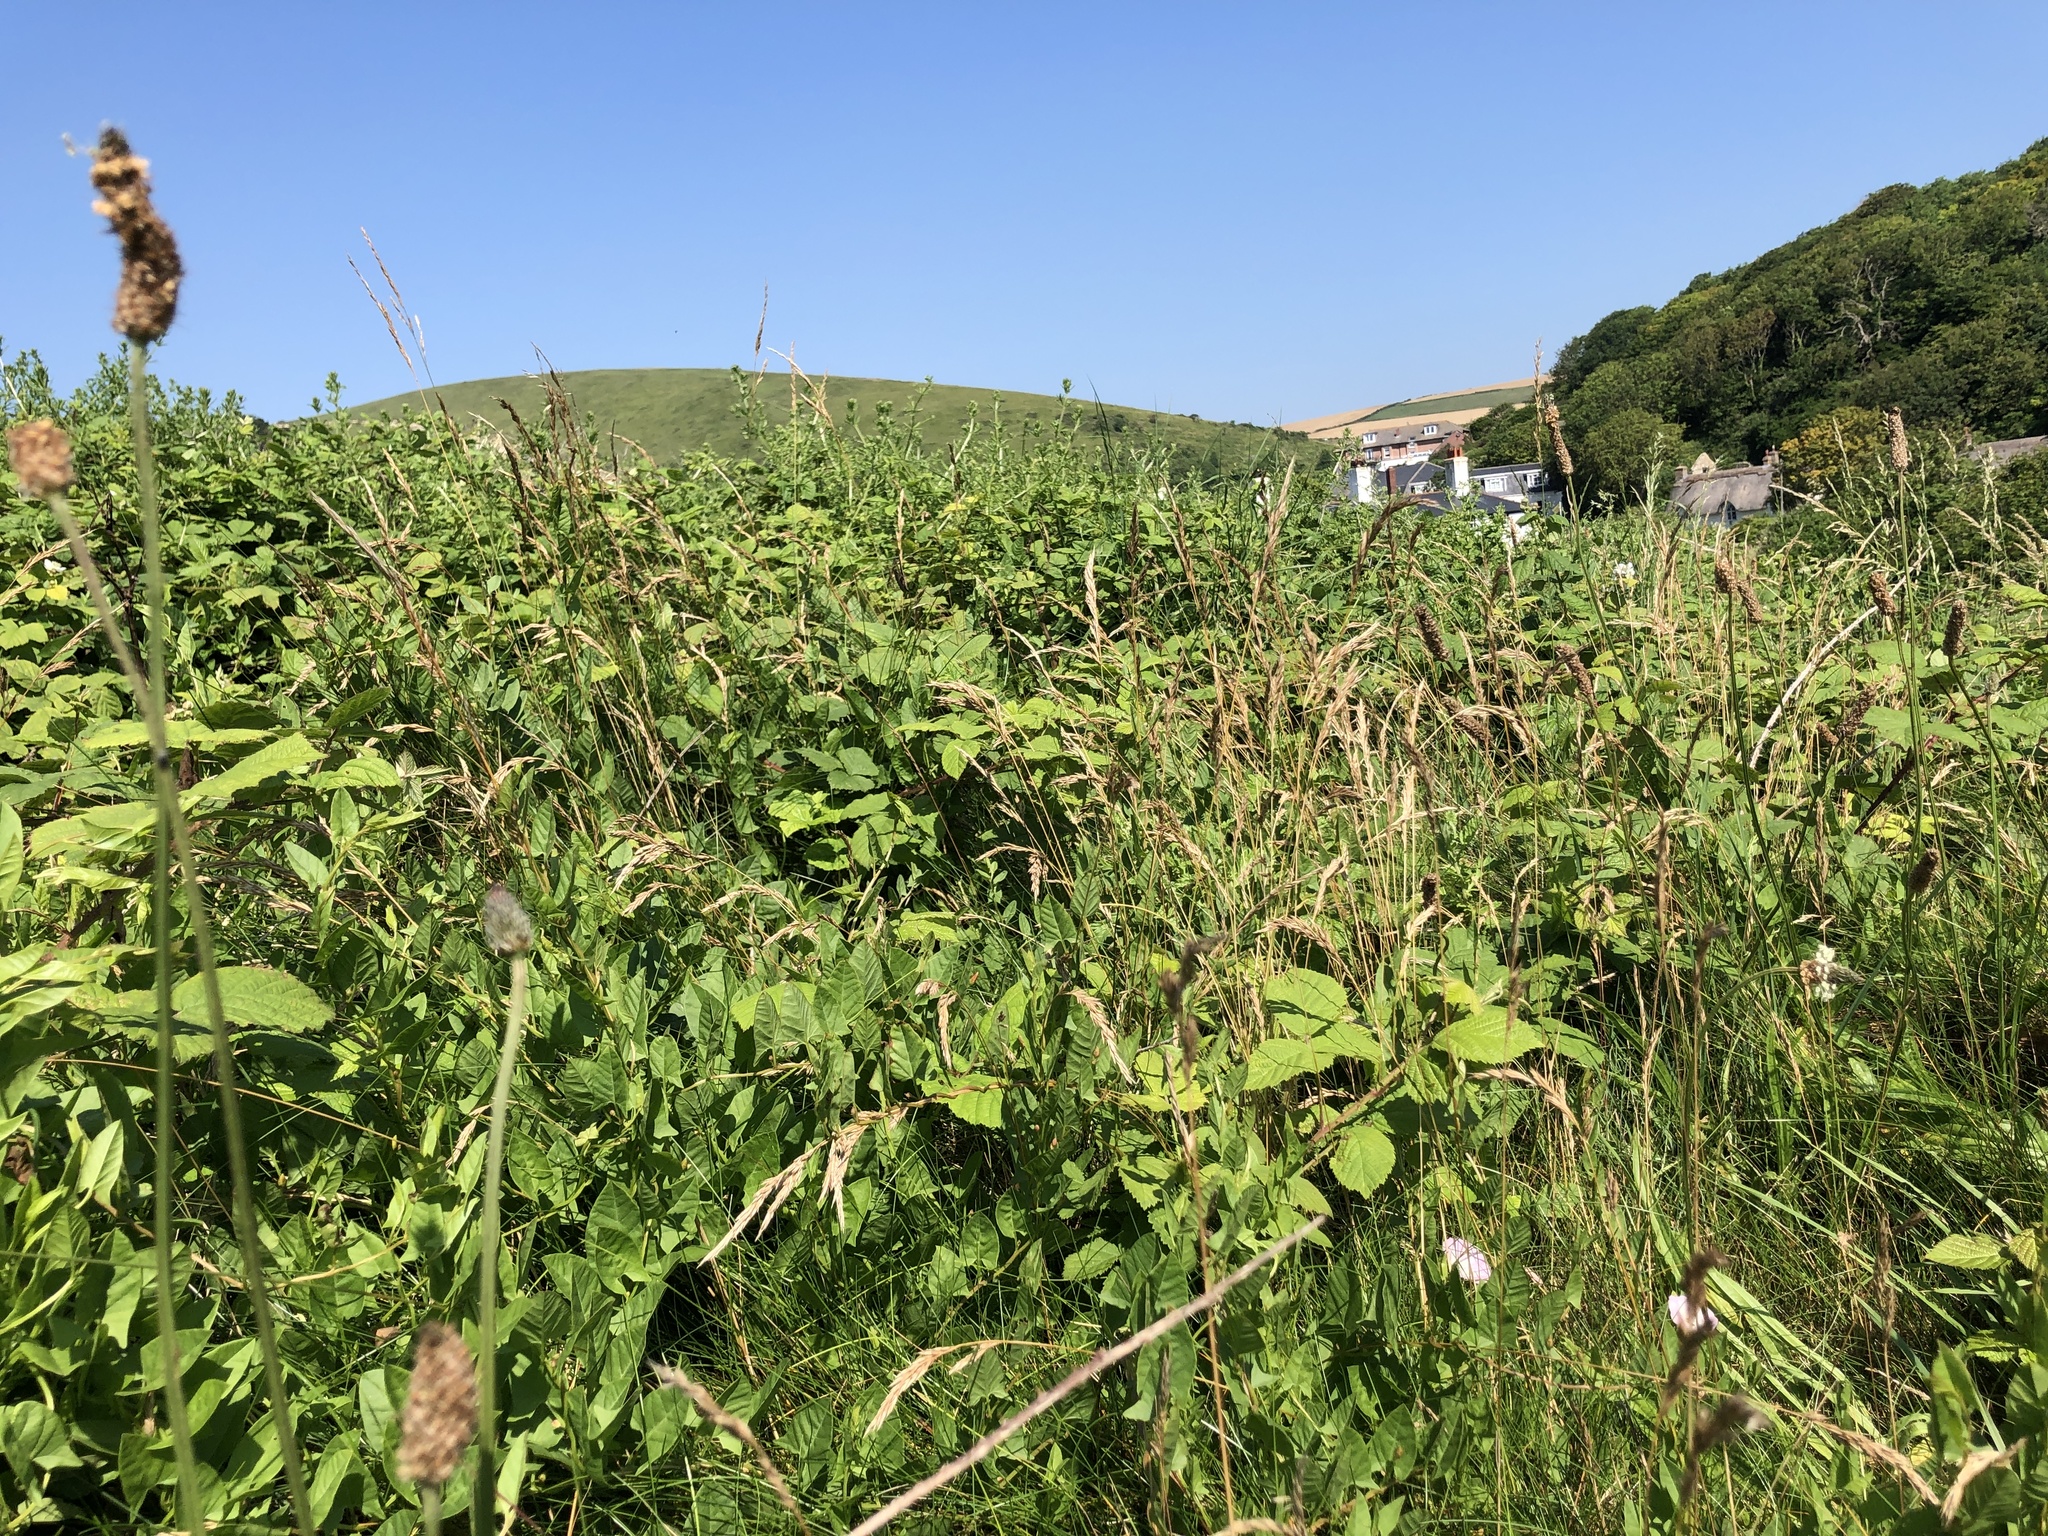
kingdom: Animalia
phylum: Arthropoda
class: Insecta
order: Lepidoptera
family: Nymphalidae
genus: Maniola
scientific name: Maniola jurtina
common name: Meadow brown
